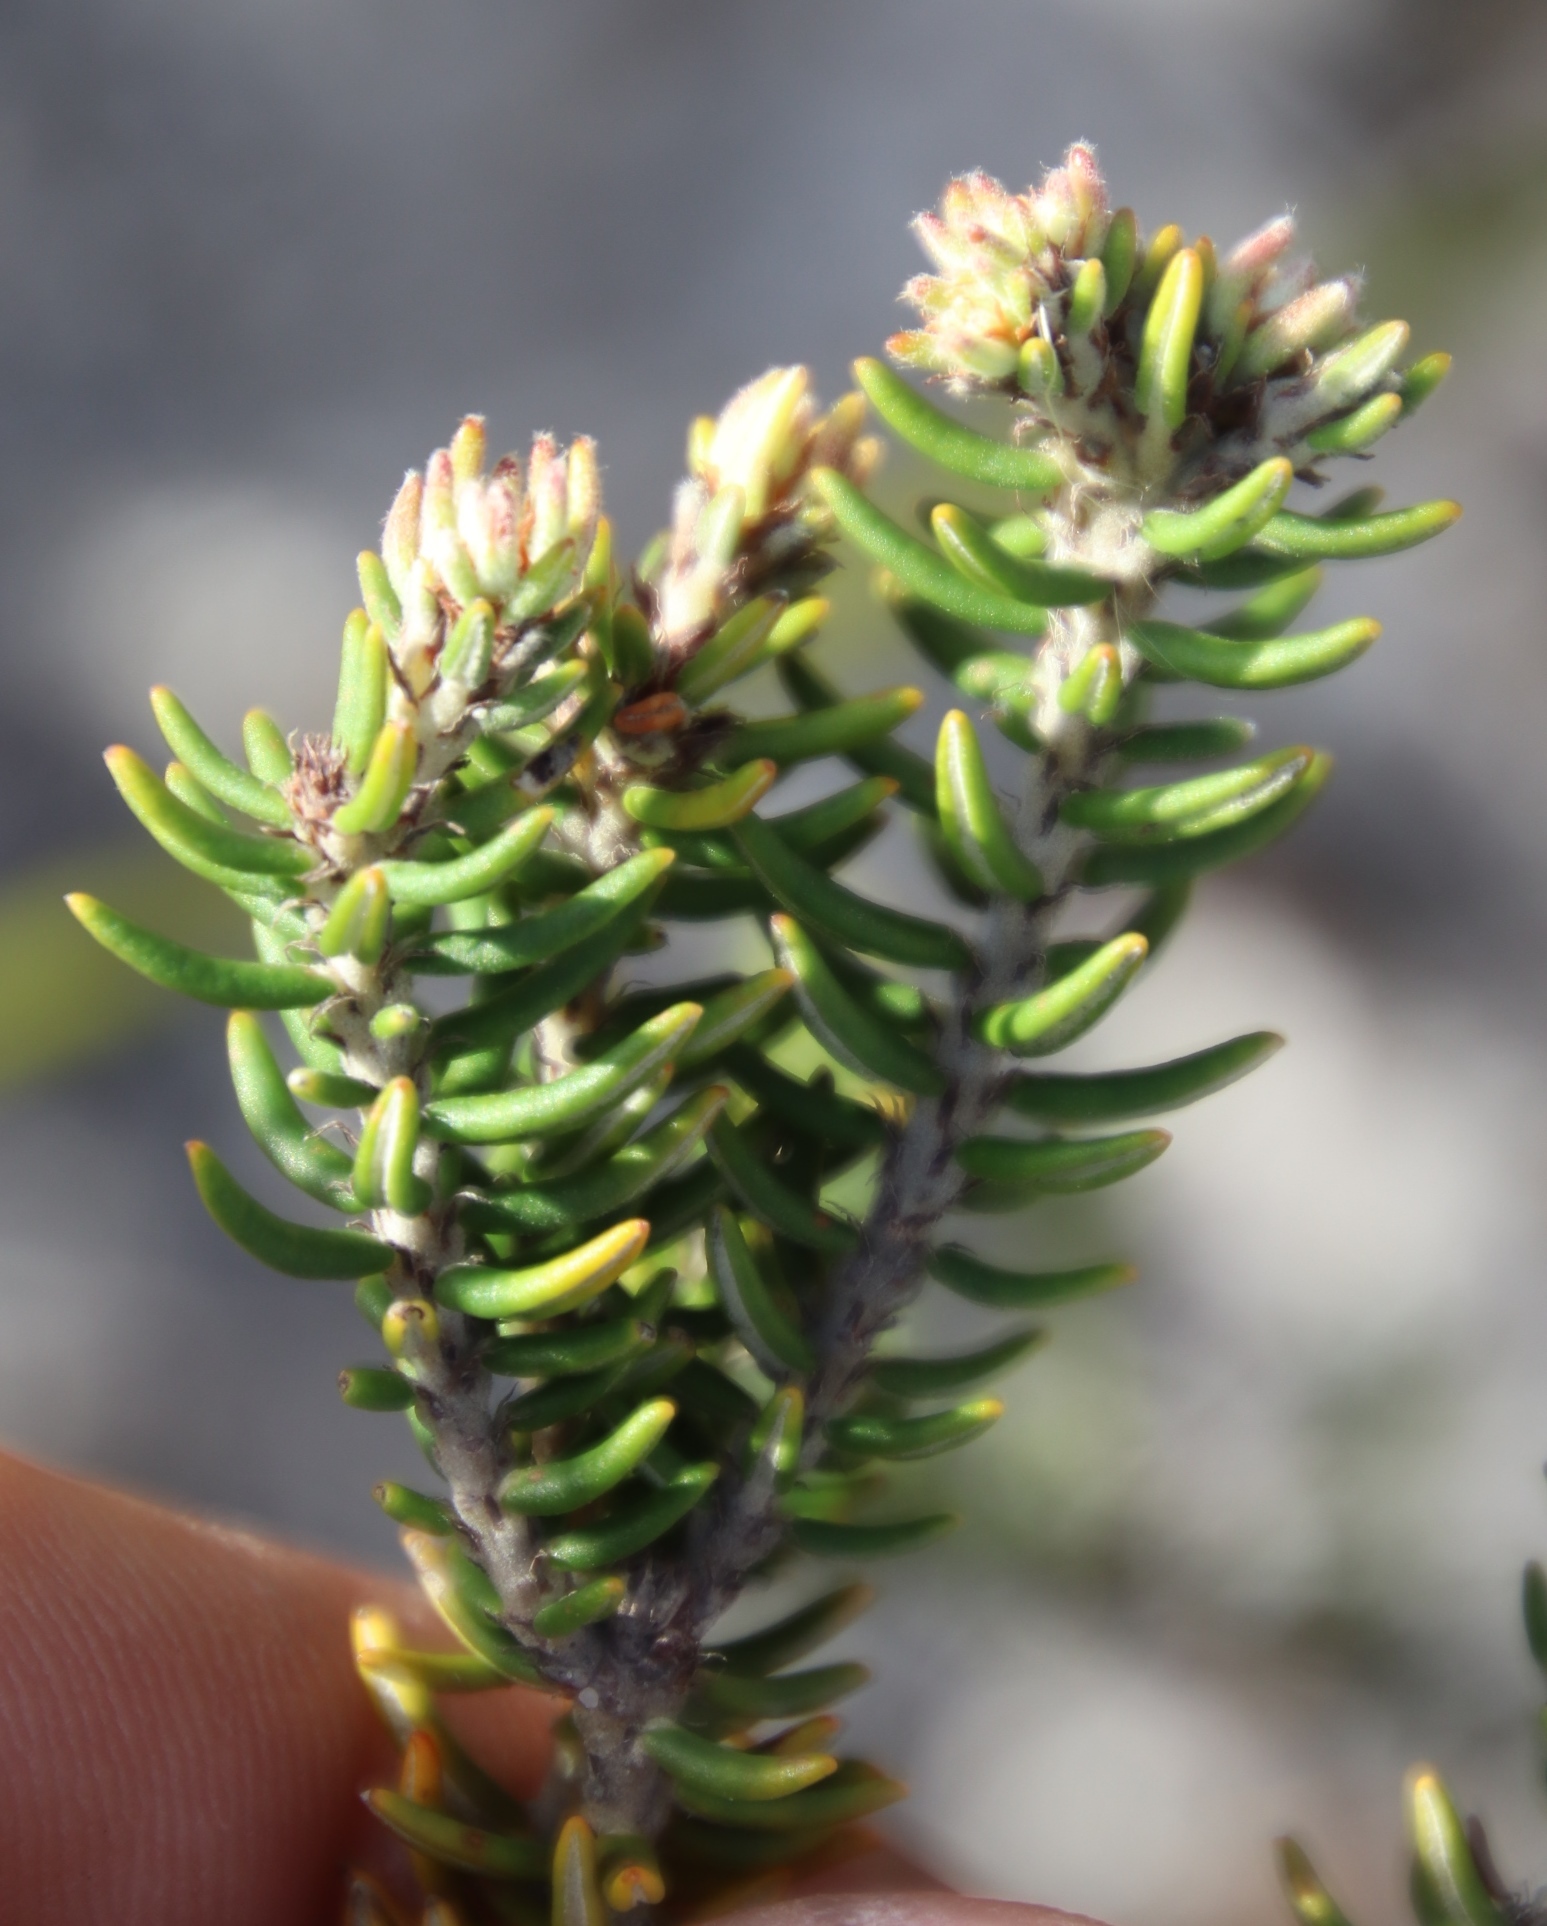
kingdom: Plantae
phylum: Tracheophyta
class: Magnoliopsida
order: Rosales
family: Rhamnaceae
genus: Trichocephalus
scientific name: Trichocephalus stipularis
